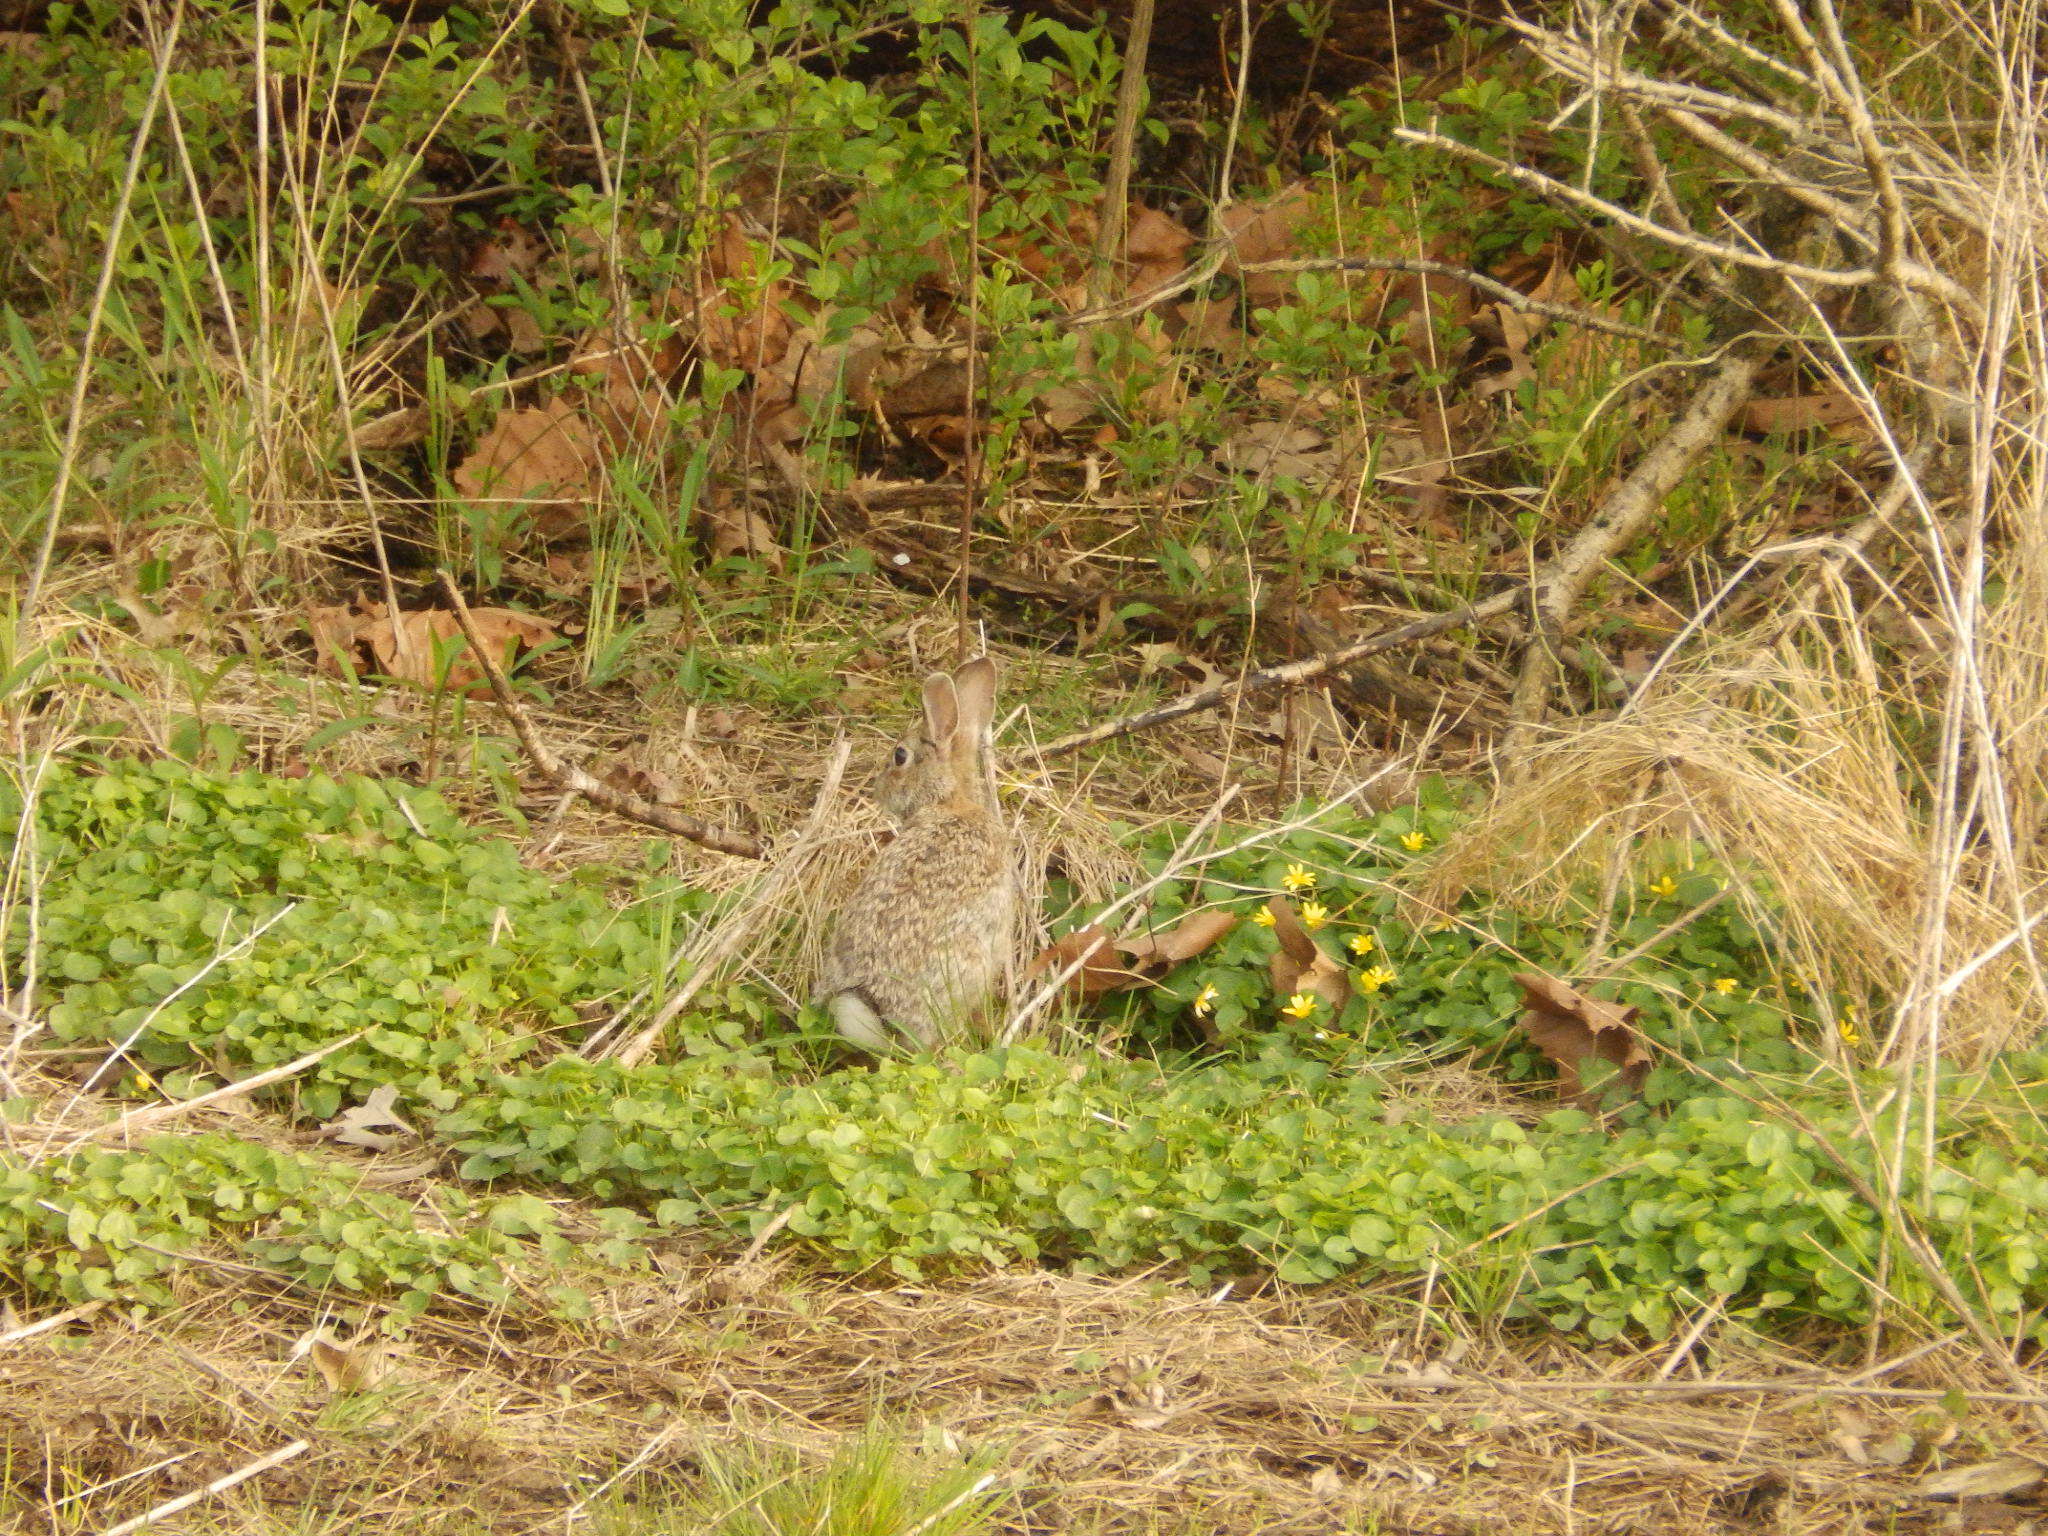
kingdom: Animalia
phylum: Chordata
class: Mammalia
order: Lagomorpha
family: Leporidae
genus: Sylvilagus
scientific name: Sylvilagus floridanus
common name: Eastern cottontail
